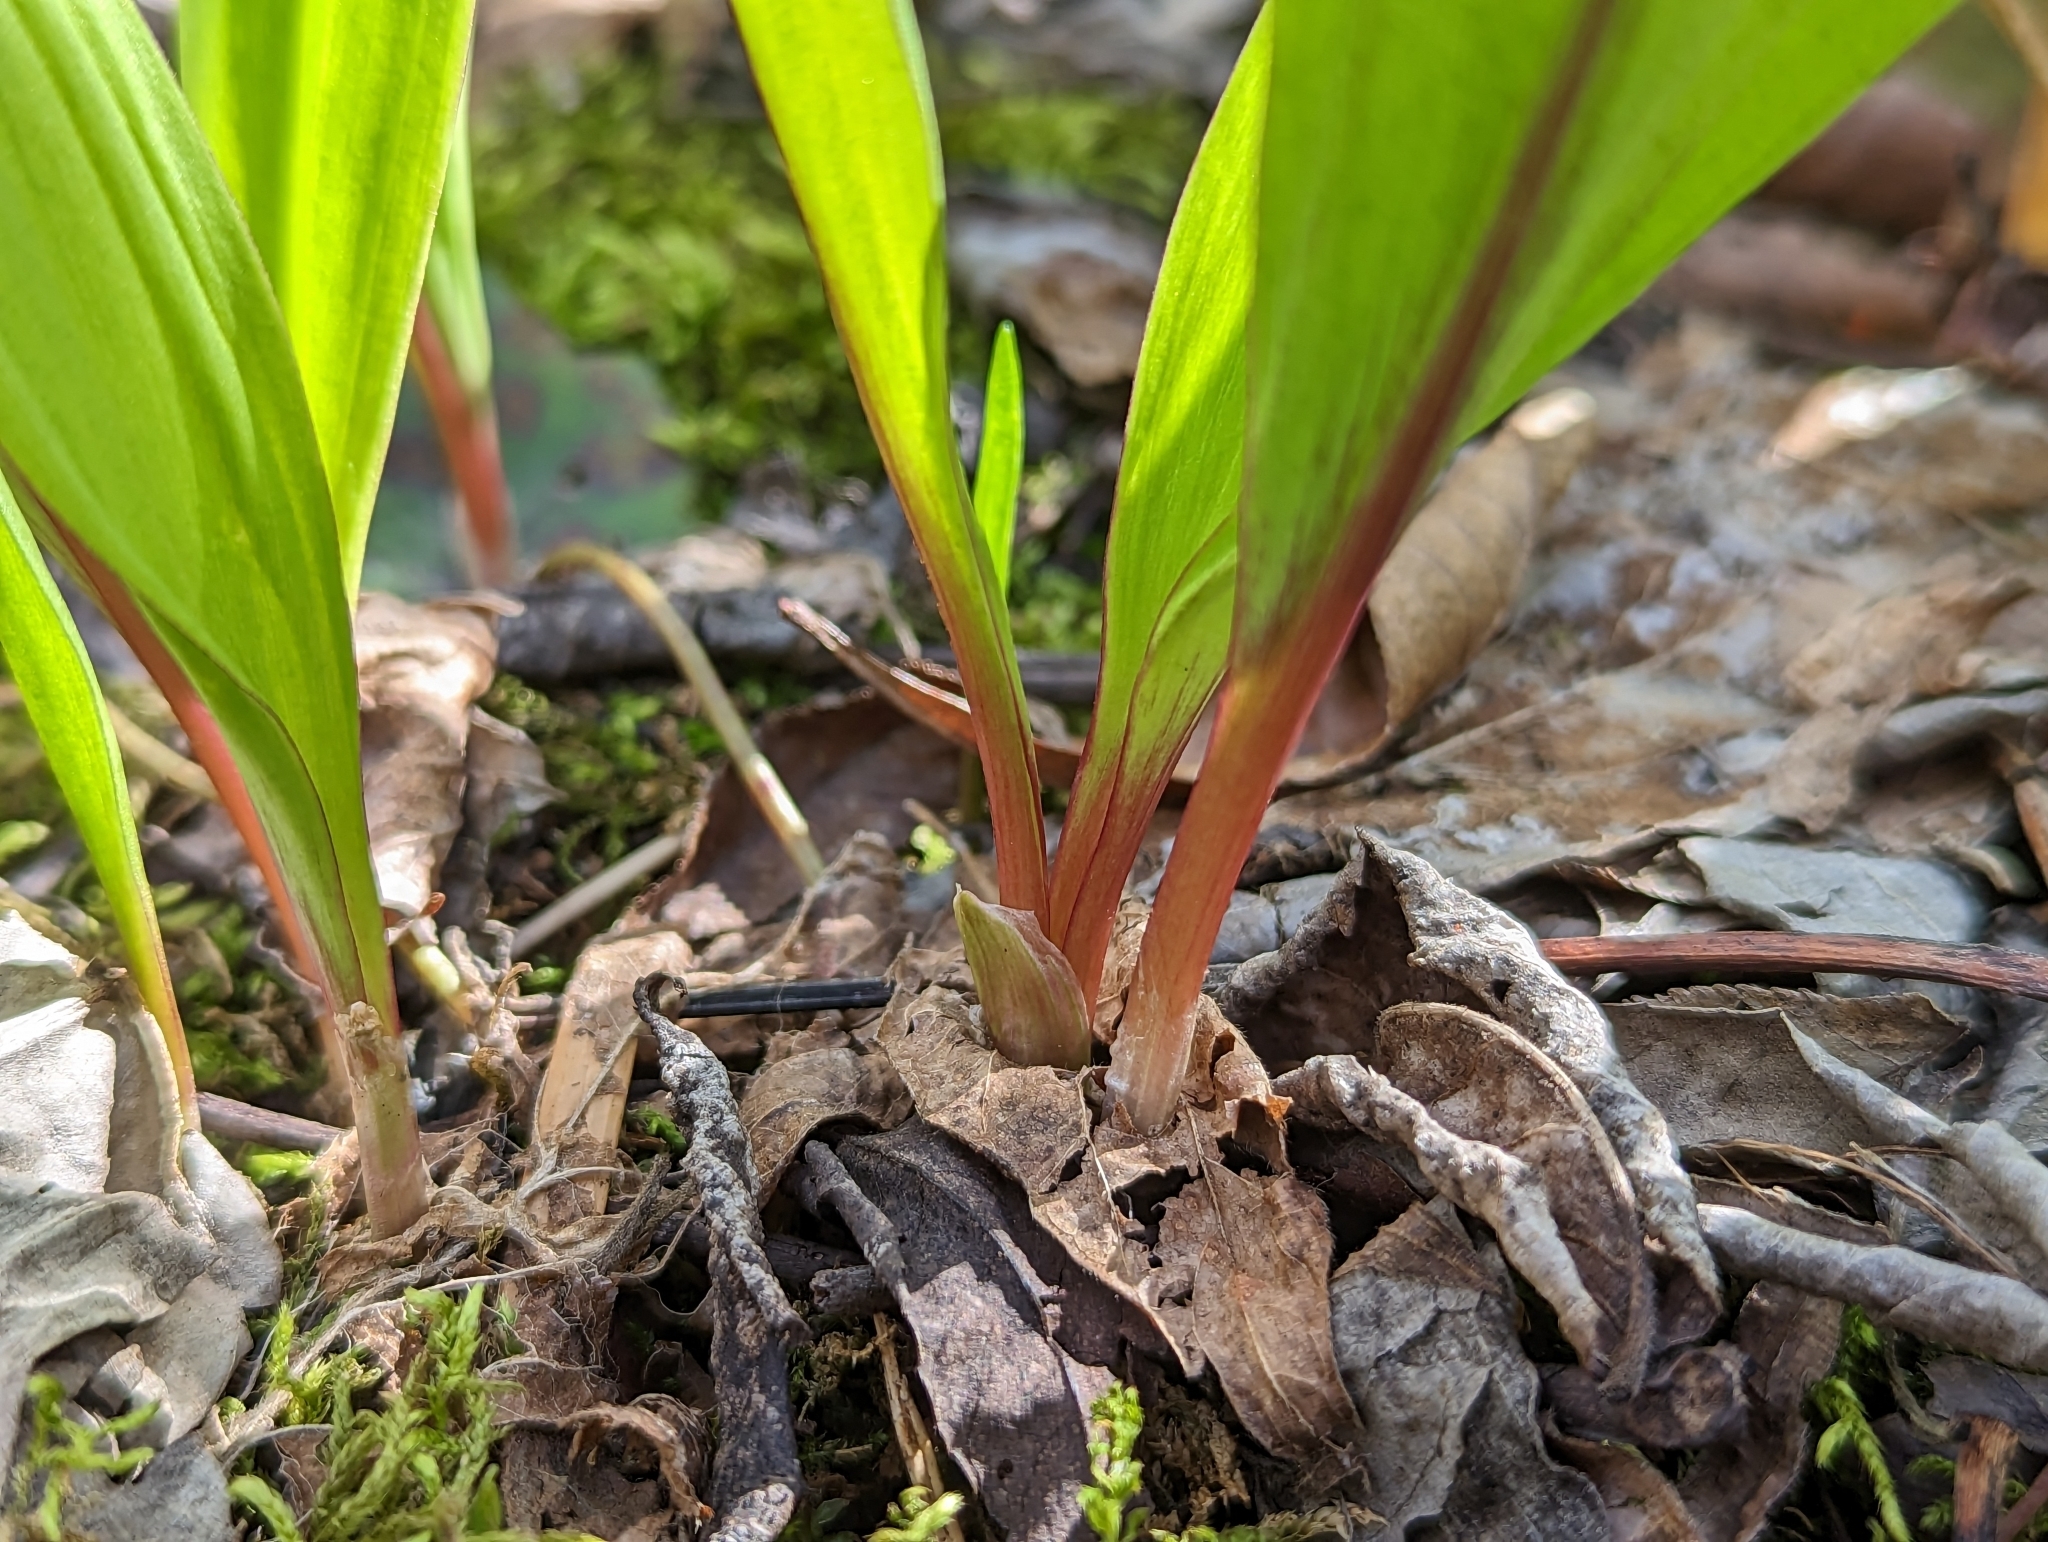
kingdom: Plantae
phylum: Tracheophyta
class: Liliopsida
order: Asparagales
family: Amaryllidaceae
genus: Allium
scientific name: Allium tricoccum
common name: Ramp
